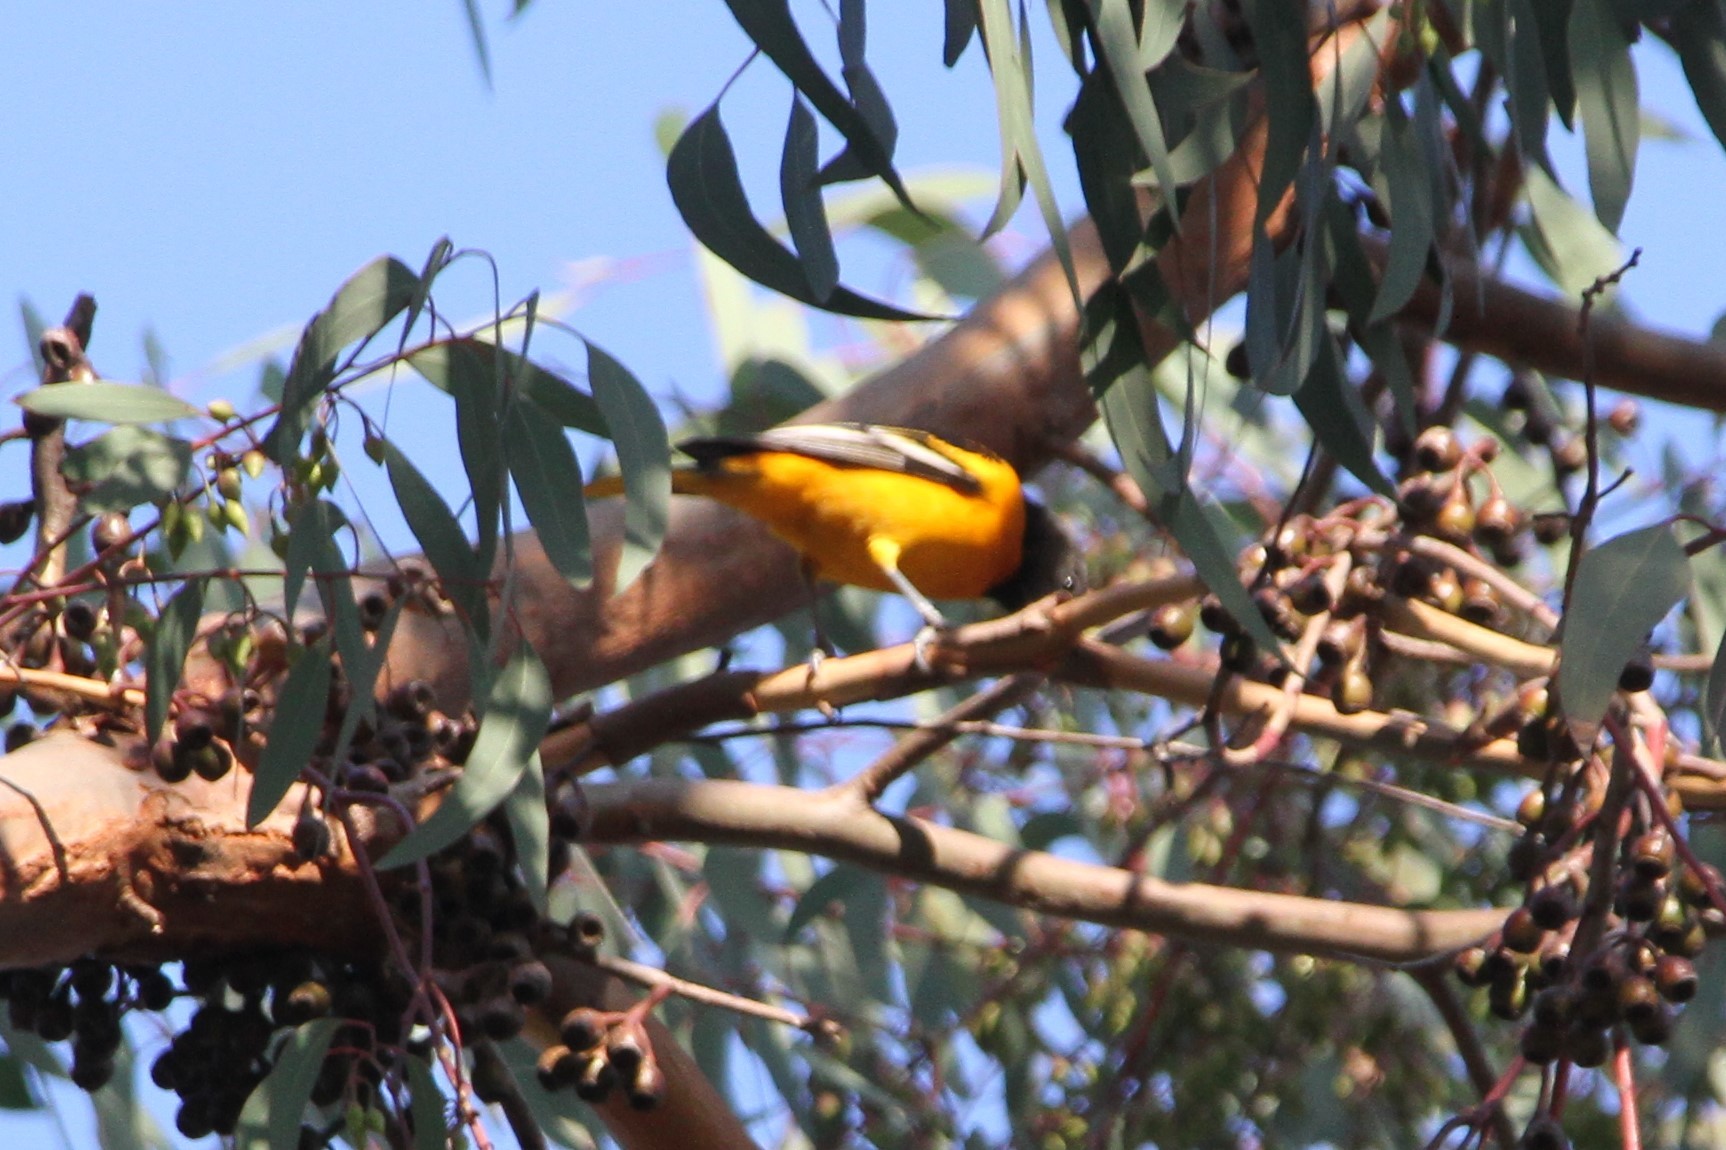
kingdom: Animalia
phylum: Chordata
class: Aves
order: Passeriformes
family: Icteridae
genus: Icterus
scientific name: Icterus galbula
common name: Baltimore oriole
